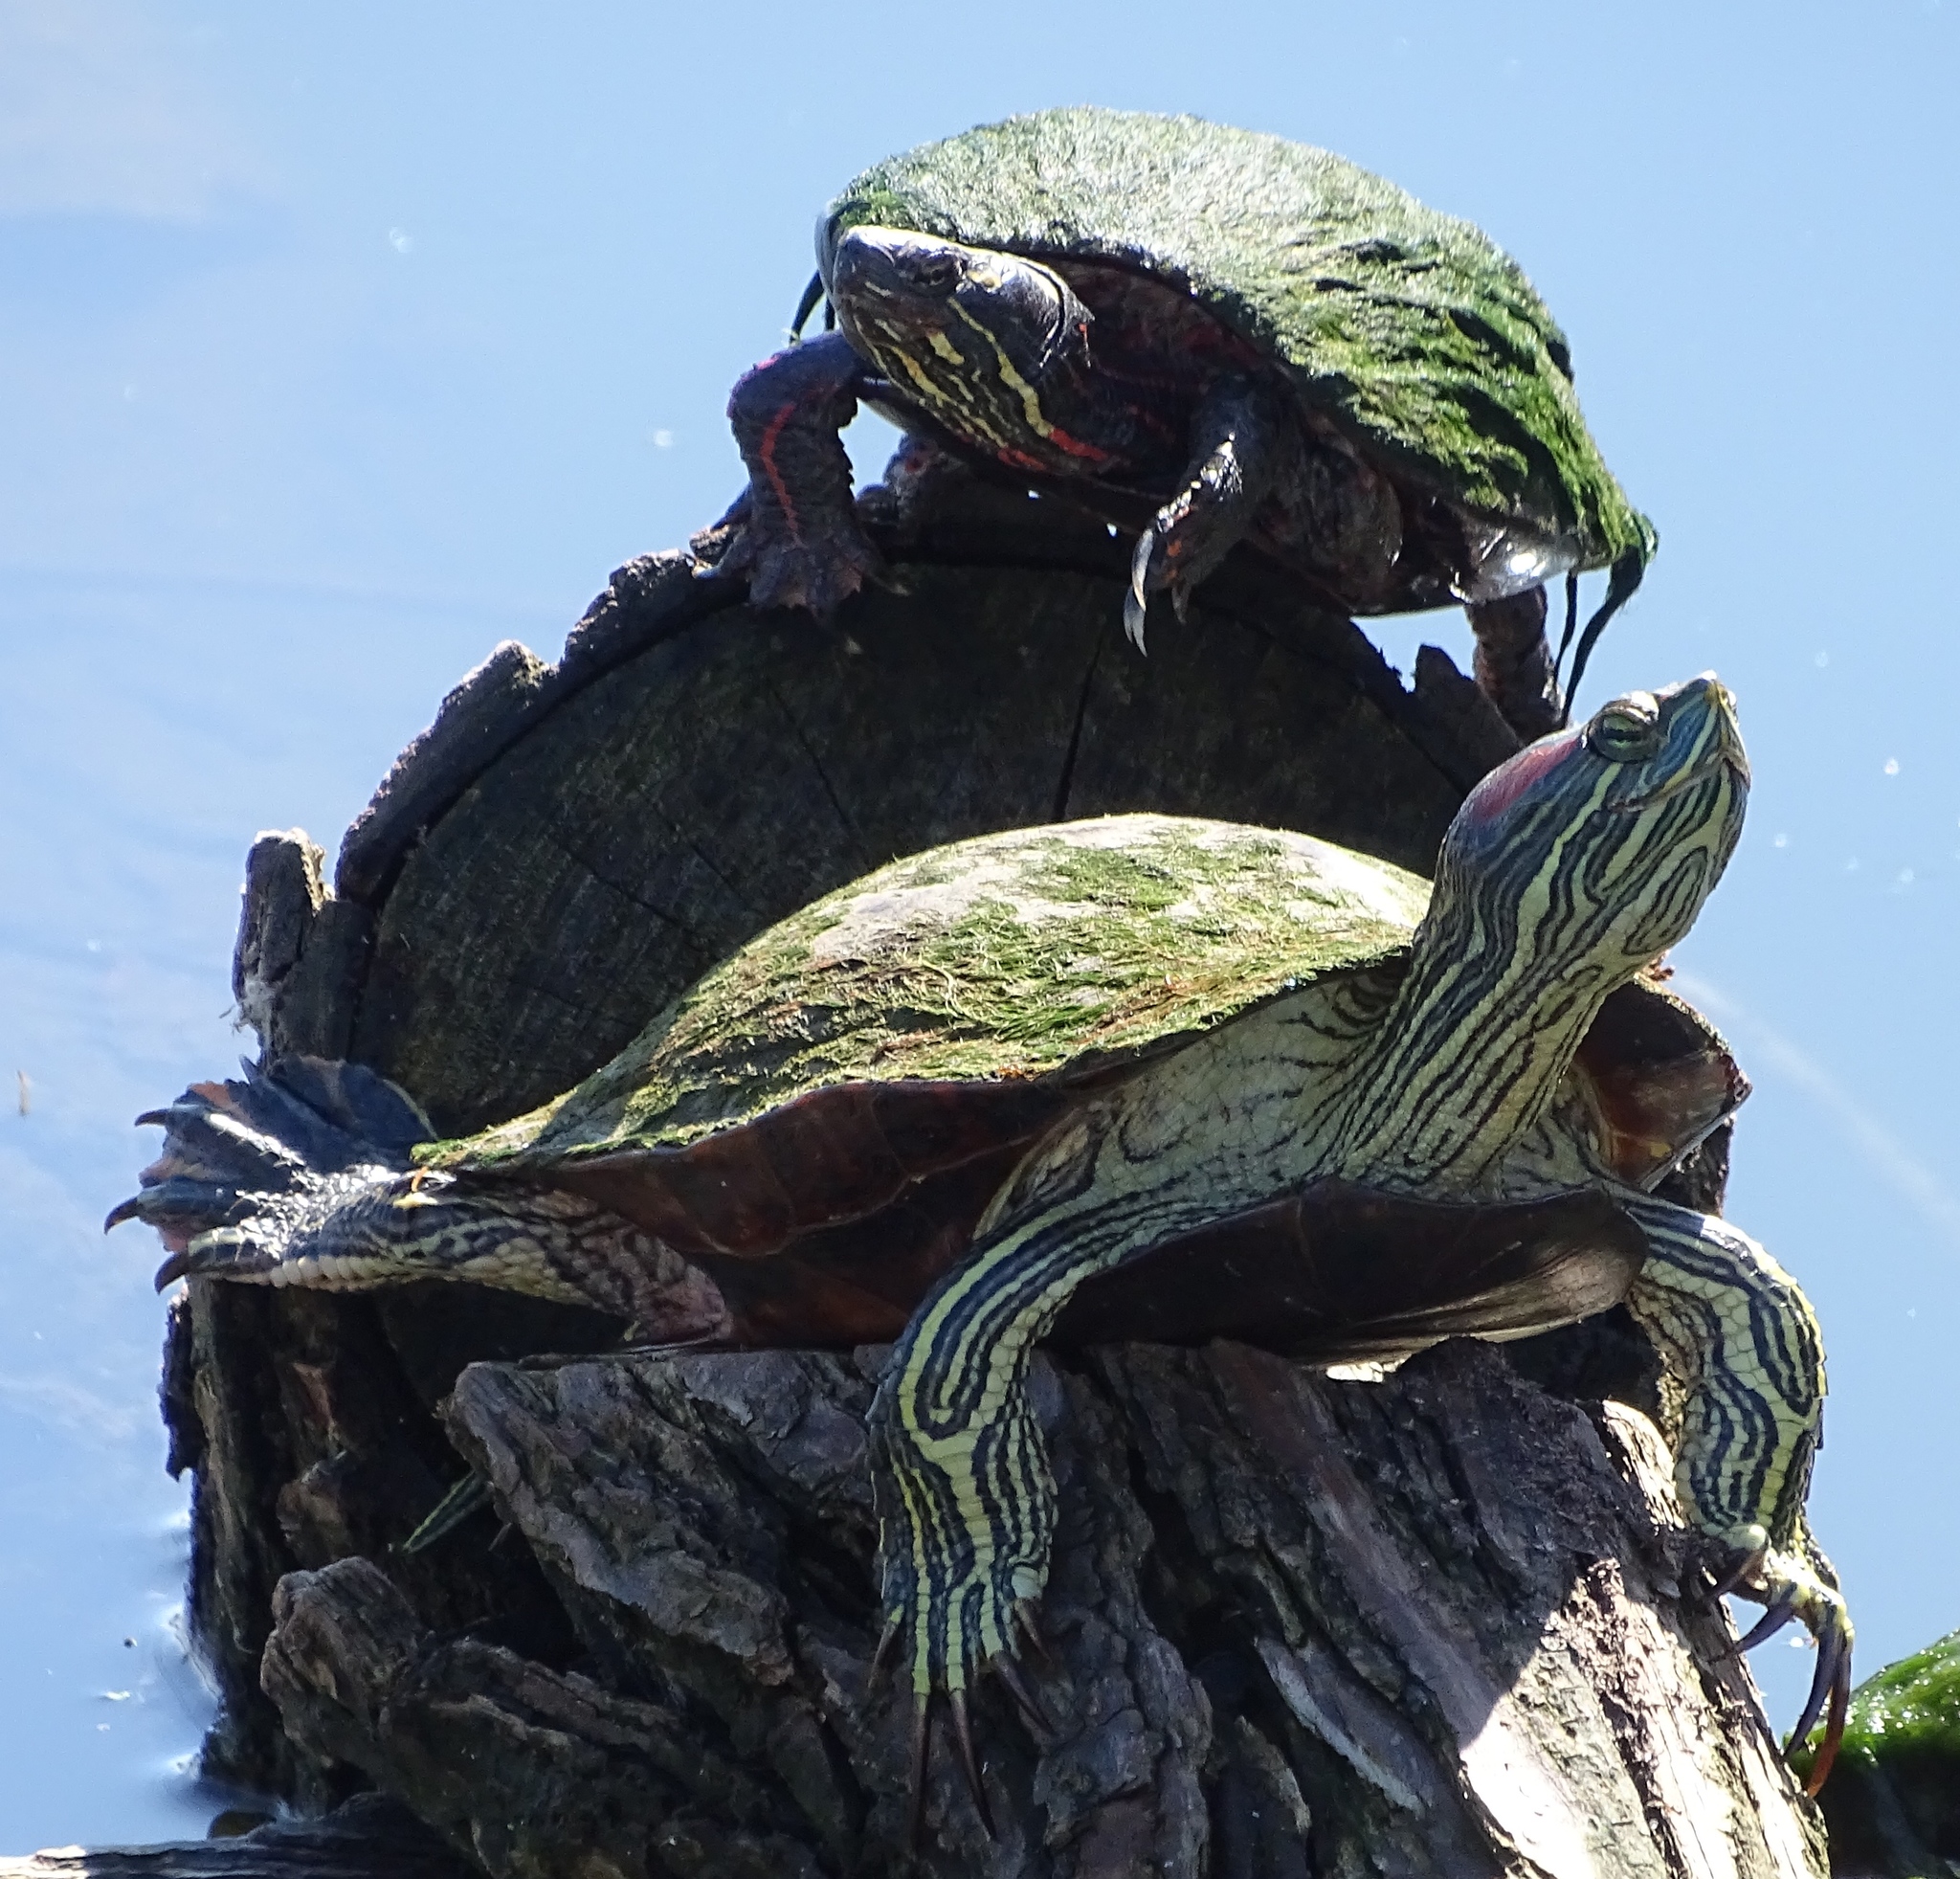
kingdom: Animalia
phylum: Chordata
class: Testudines
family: Emydidae
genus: Trachemys
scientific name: Trachemys scripta
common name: Slider
